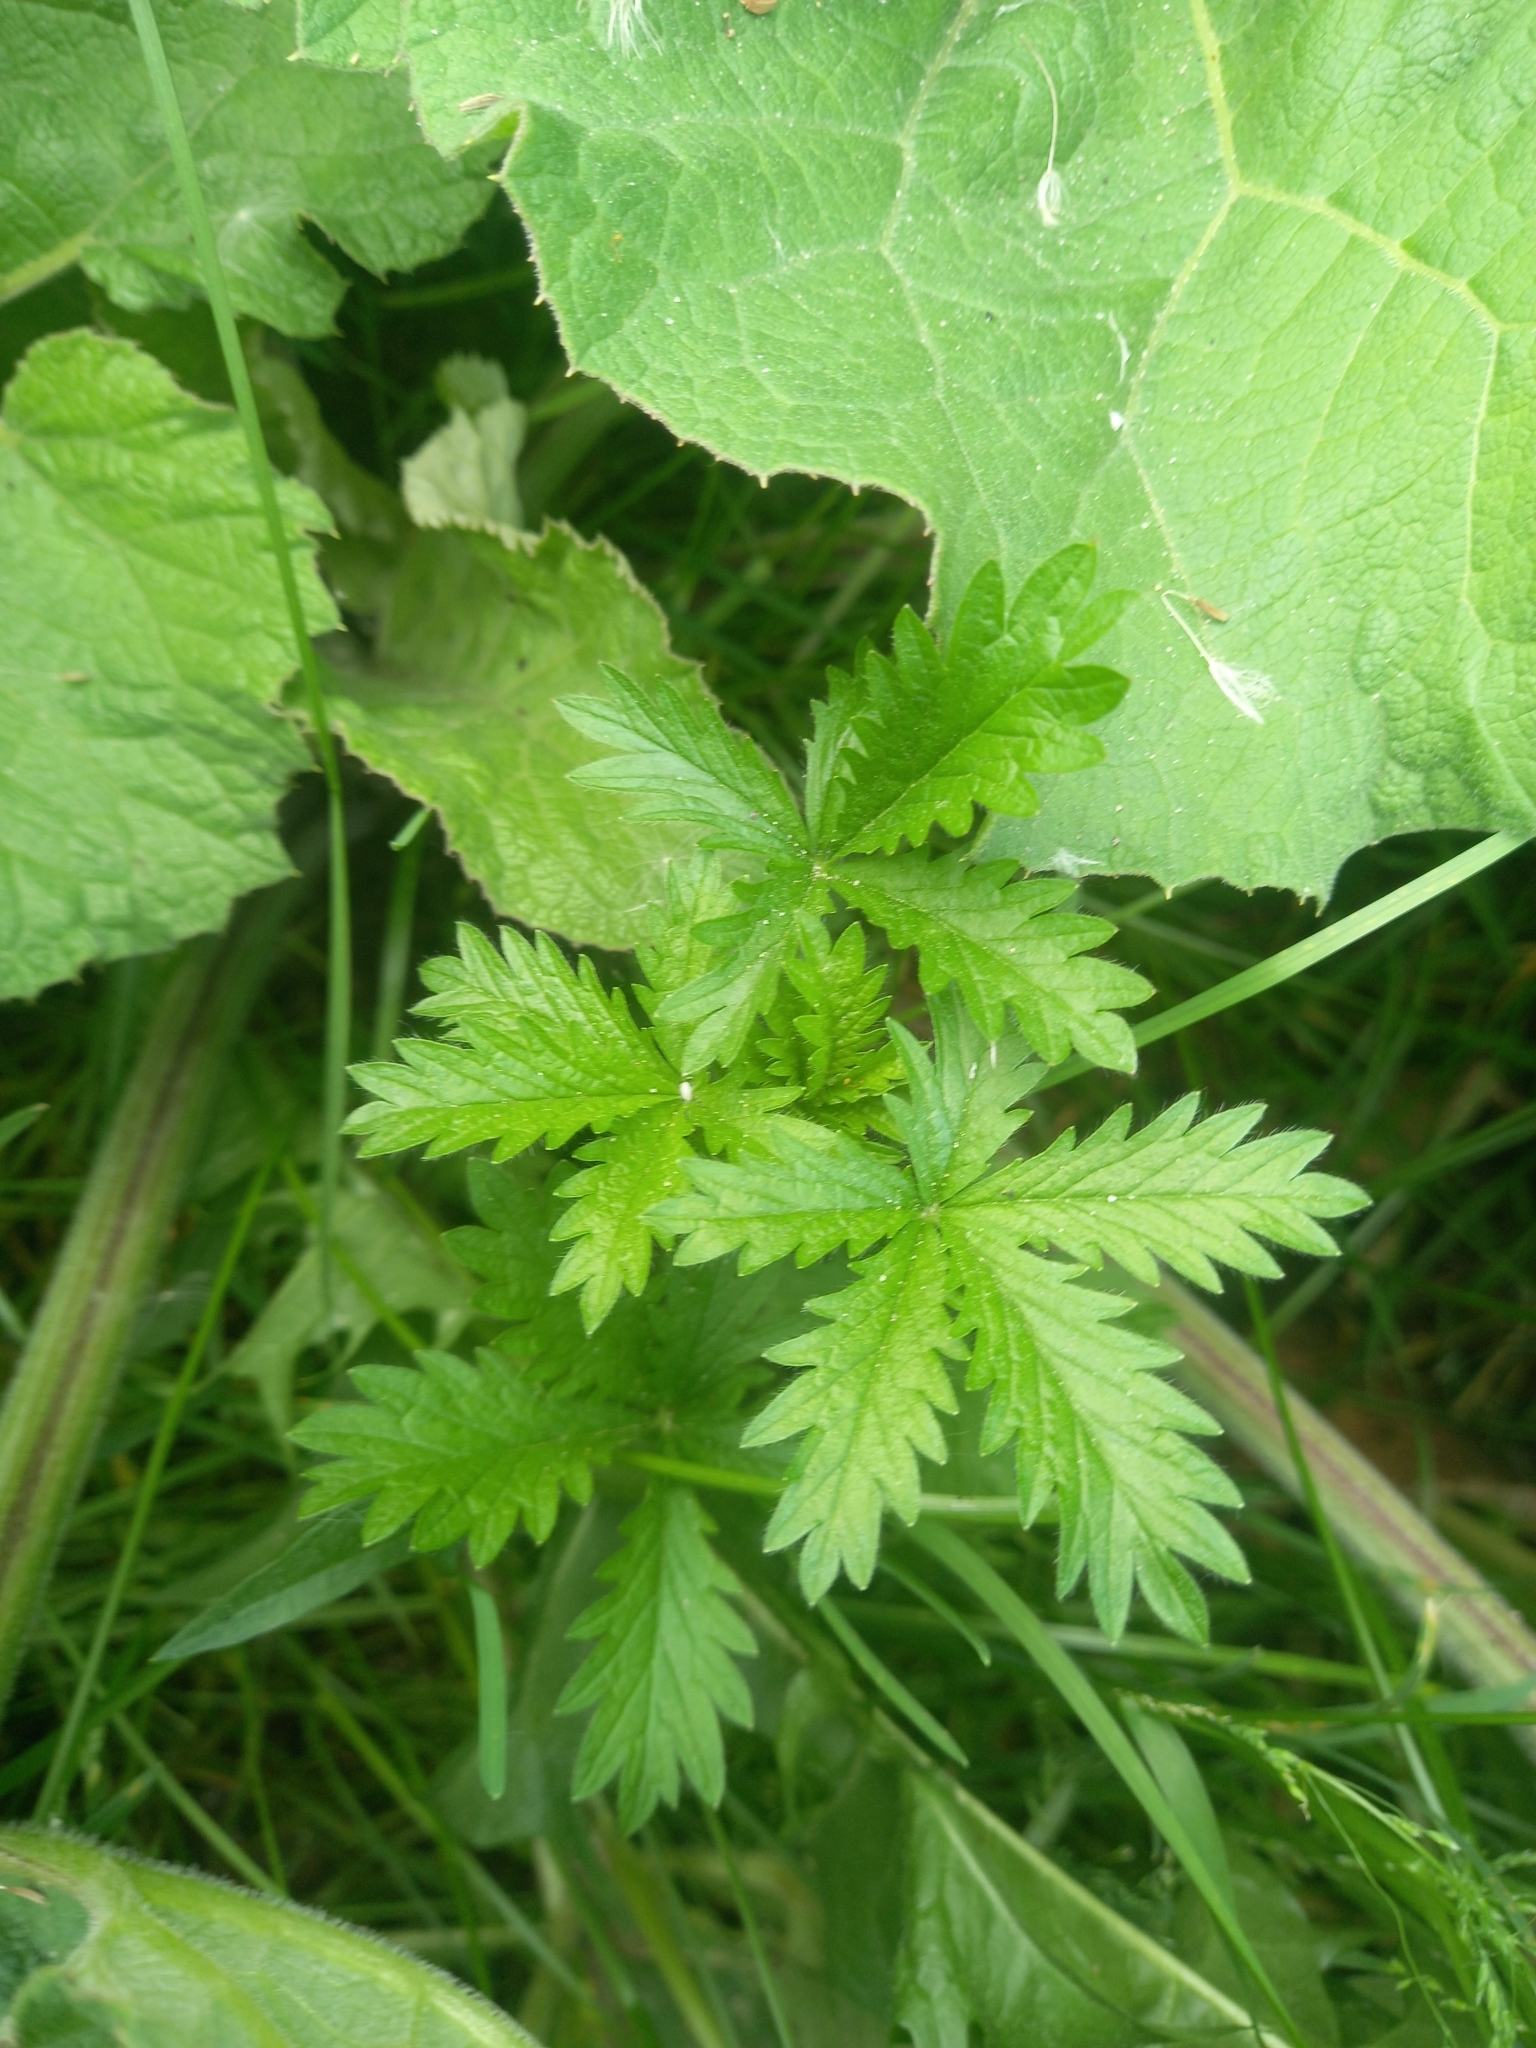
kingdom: Plantae
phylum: Tracheophyta
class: Magnoliopsida
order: Rosales
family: Rosaceae
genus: Potentilla
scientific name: Potentilla intermedia
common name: Downy cinquefoil
